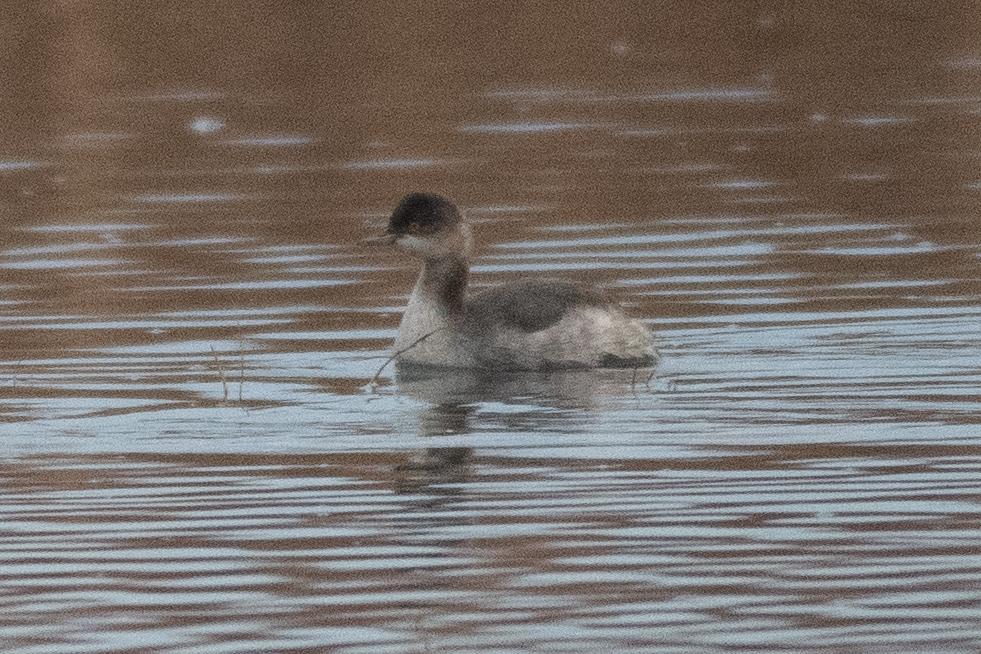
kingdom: Animalia
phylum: Chordata
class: Aves
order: Podicipediformes
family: Podicipedidae
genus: Podiceps
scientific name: Podiceps nigricollis
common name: Black-necked grebe
